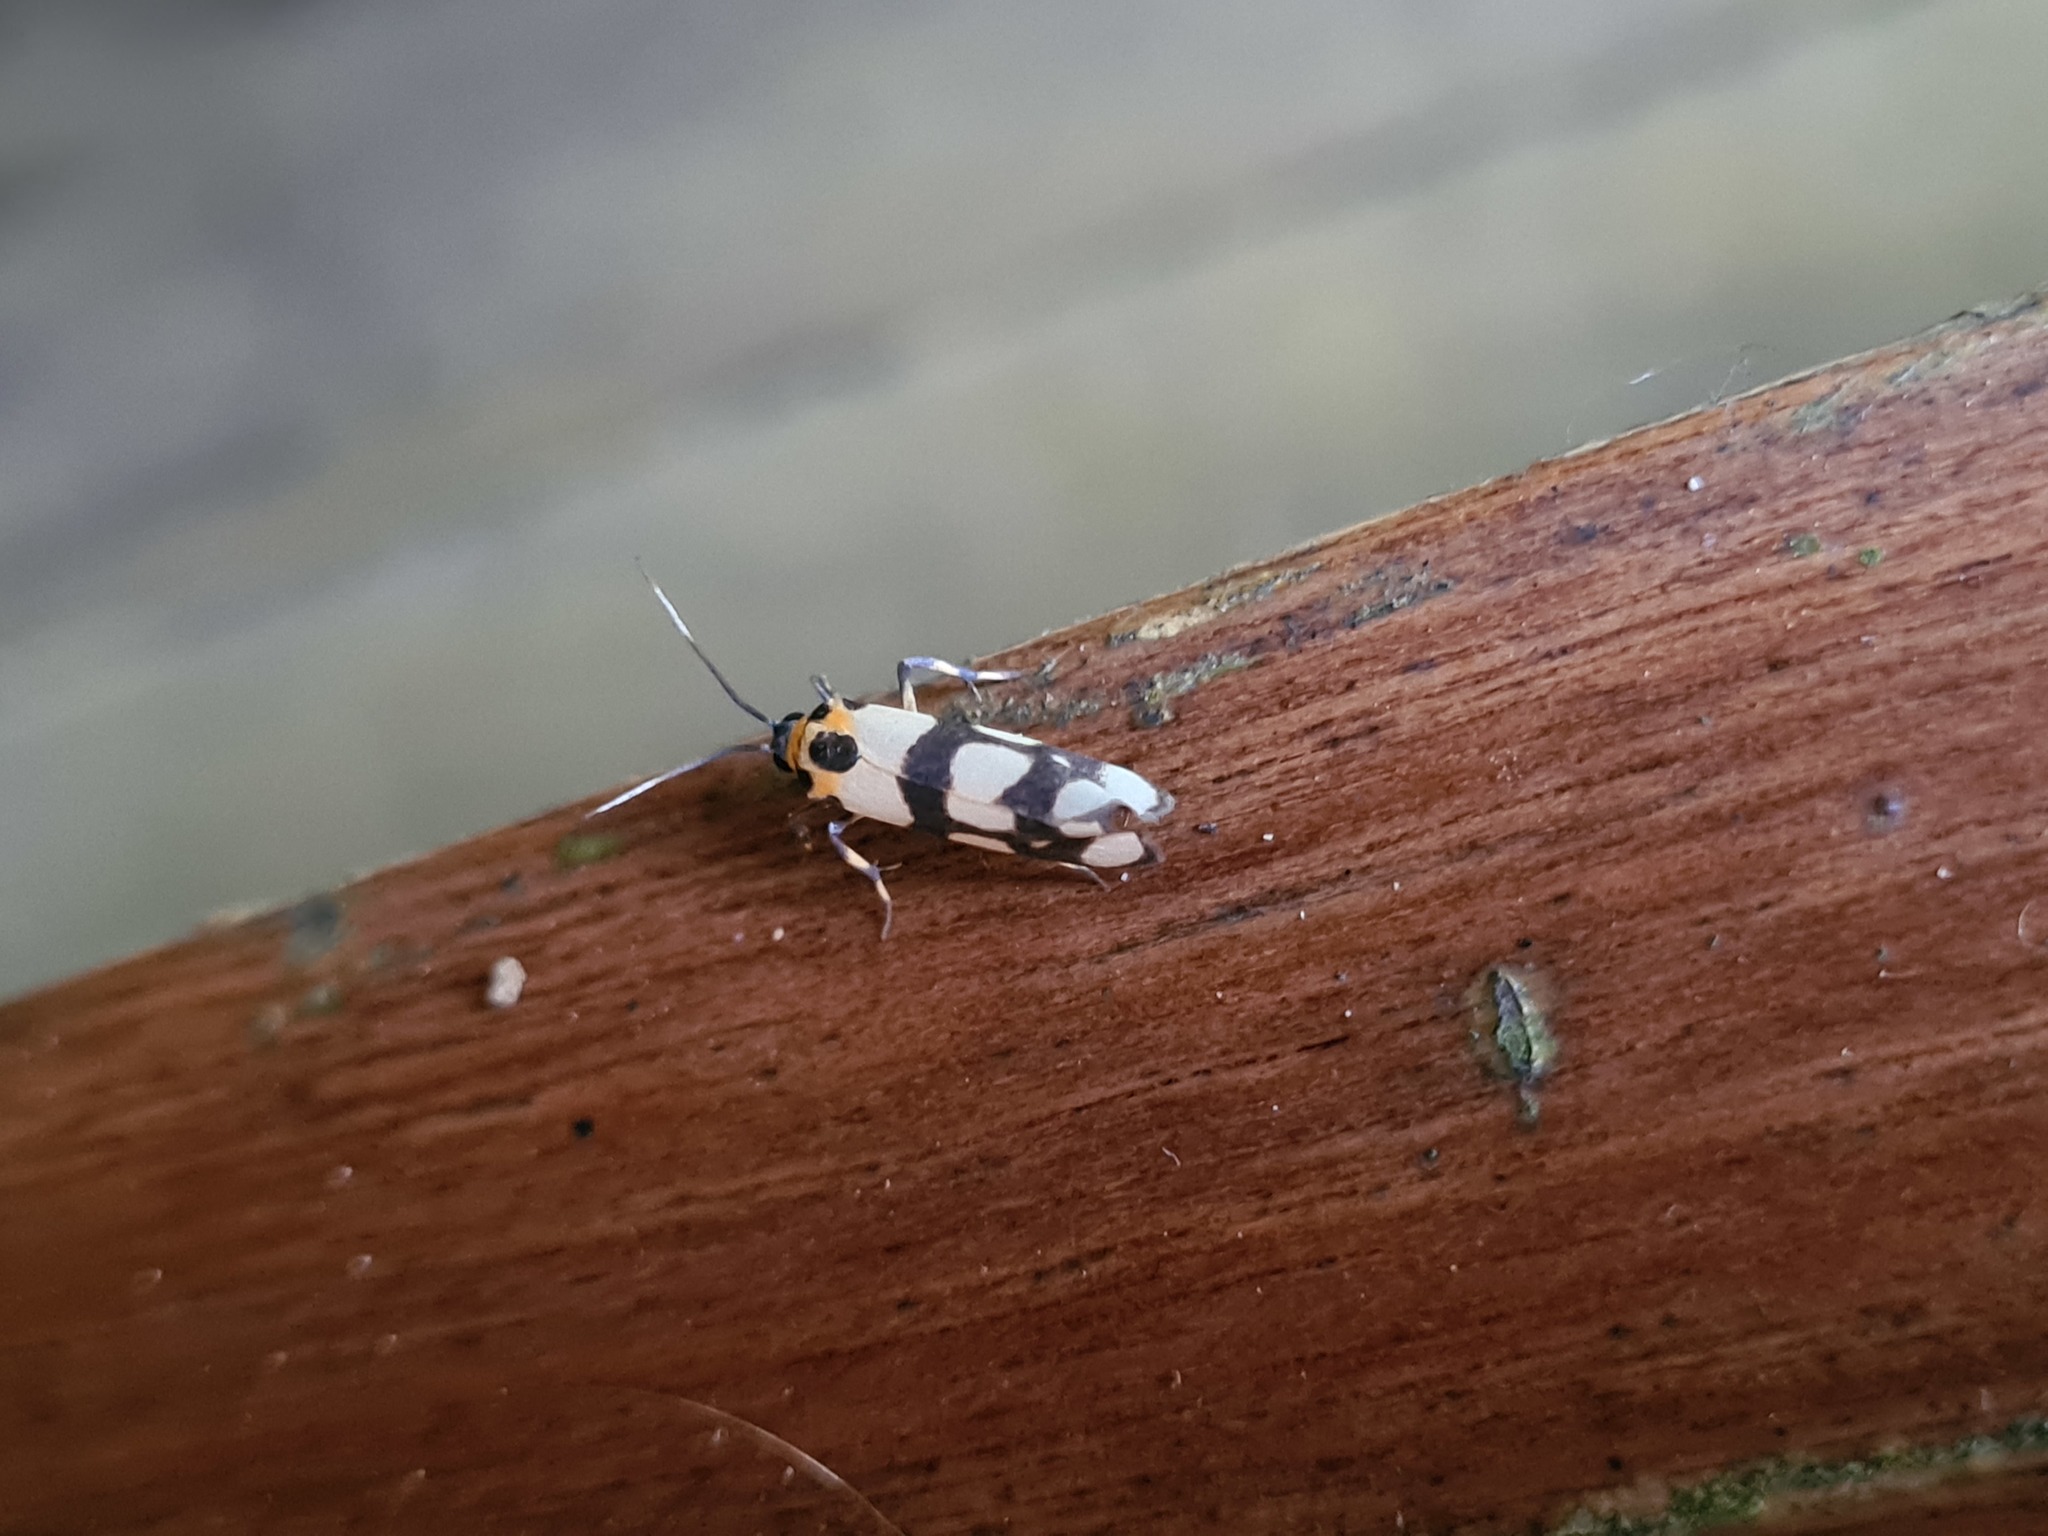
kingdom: Animalia
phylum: Arthropoda
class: Insecta
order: Lepidoptera
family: Erebidae
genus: Cisthene
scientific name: Cisthene tessellata
